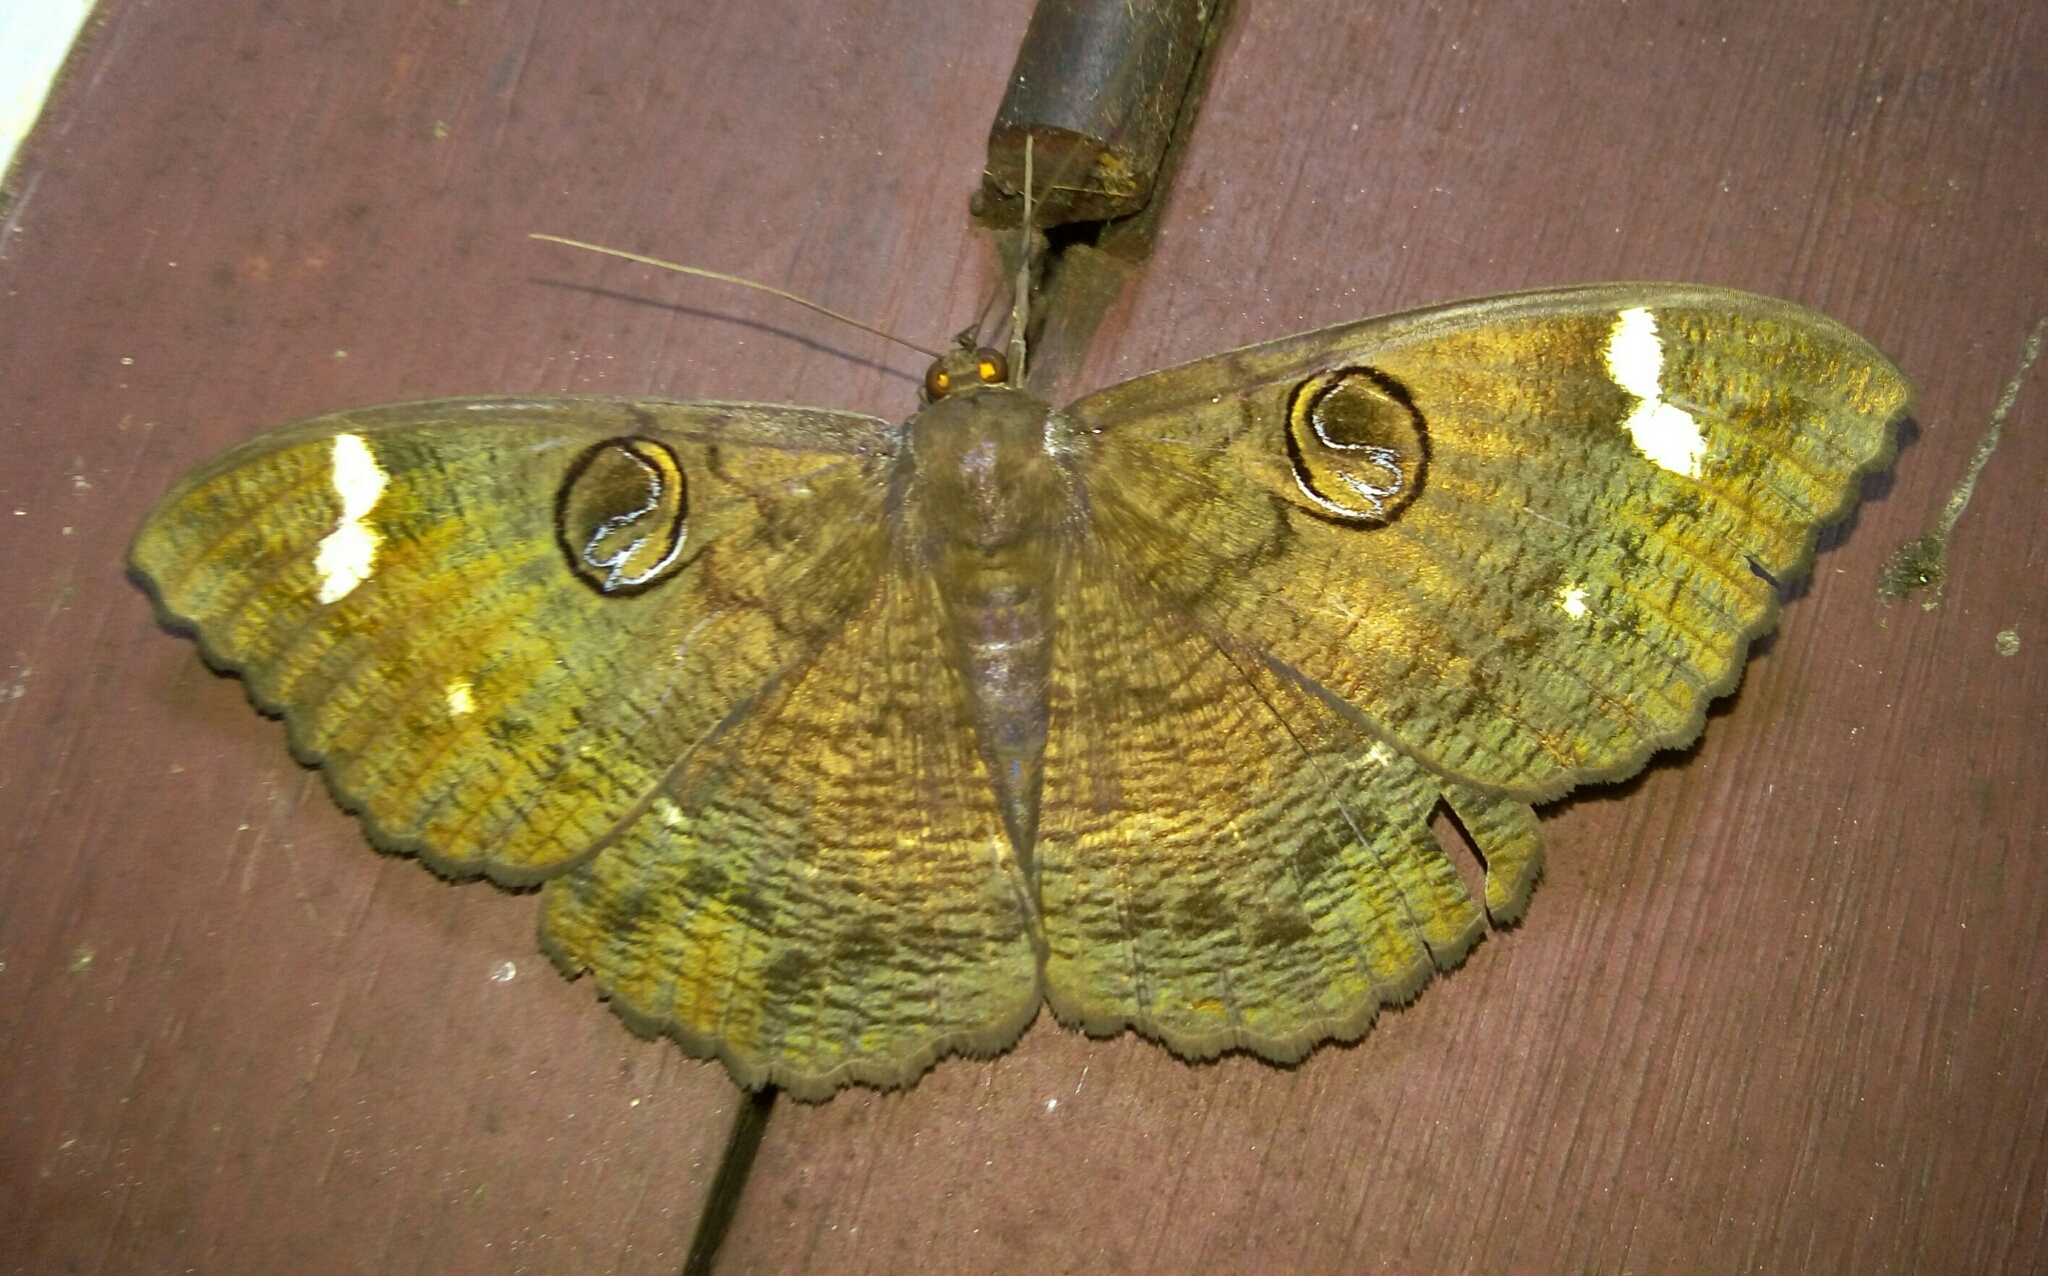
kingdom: Animalia
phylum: Arthropoda
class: Insecta
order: Lepidoptera
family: Erebidae
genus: Erebus
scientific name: Erebus hieroglyphica
